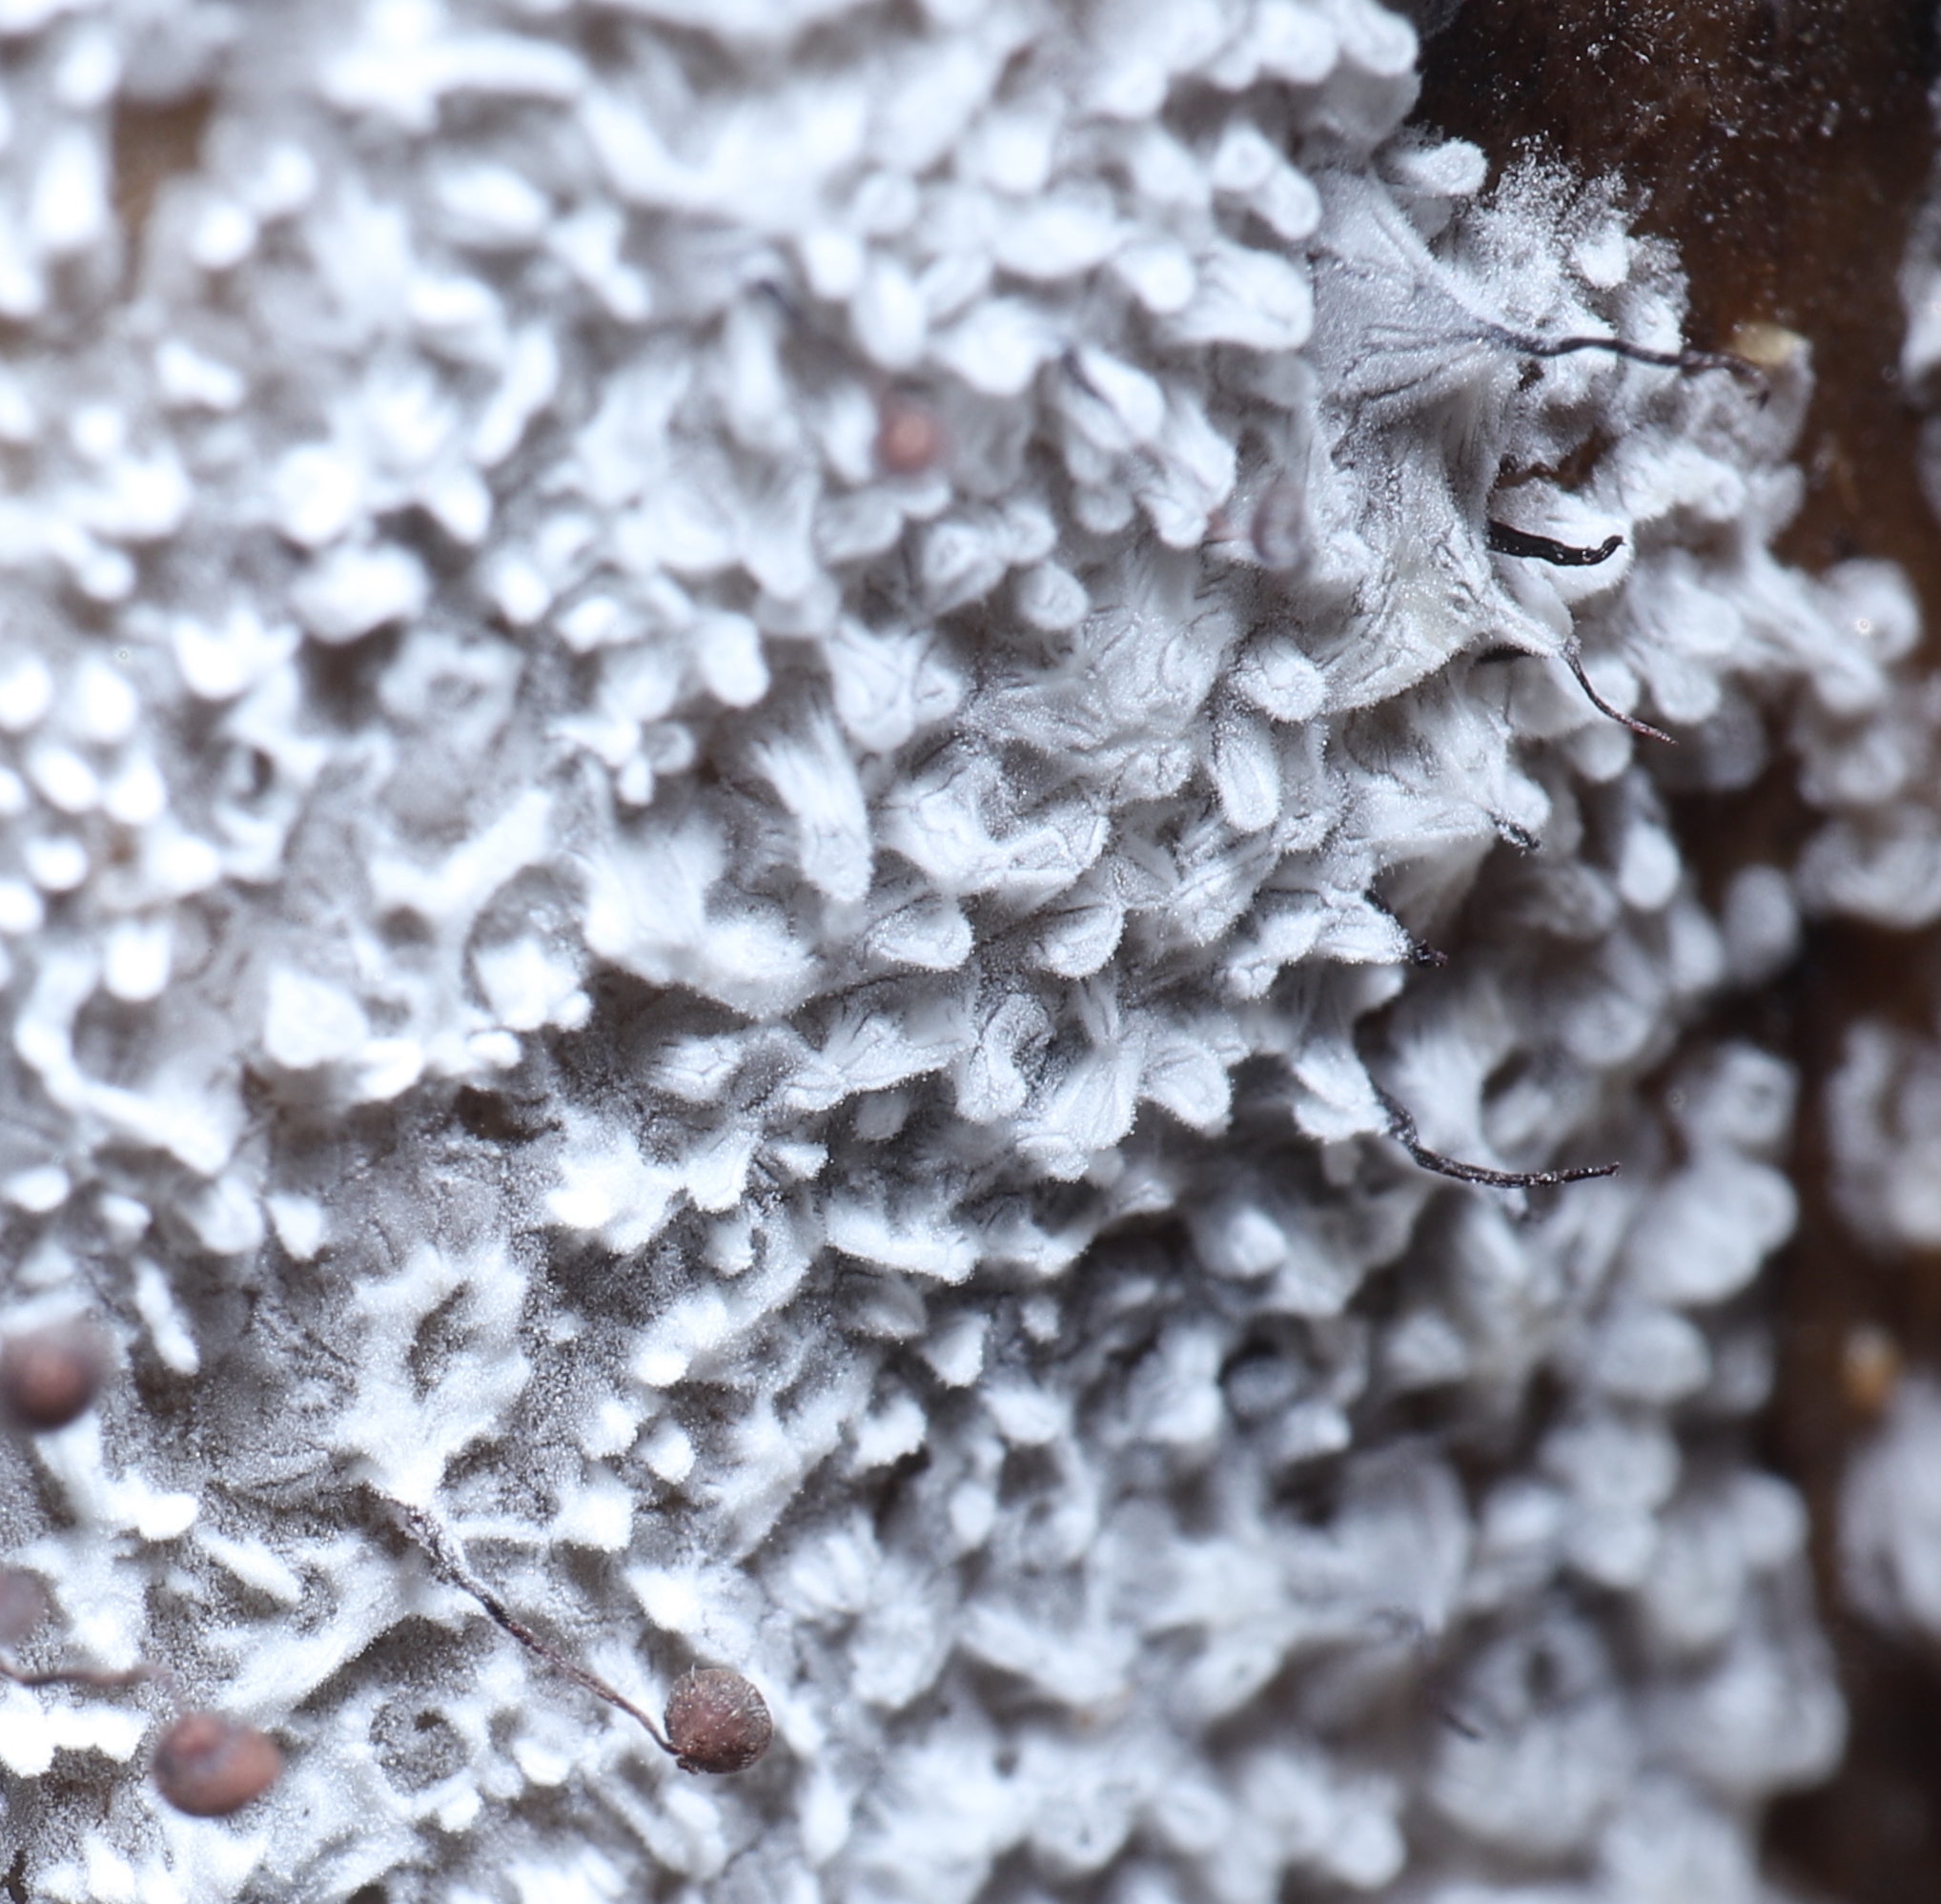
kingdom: Protozoa
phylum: Mycetozoa
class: Myxomycetes
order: Cribrariales
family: Cribrariaceae
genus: Cribraria
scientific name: Cribraria cancellata
